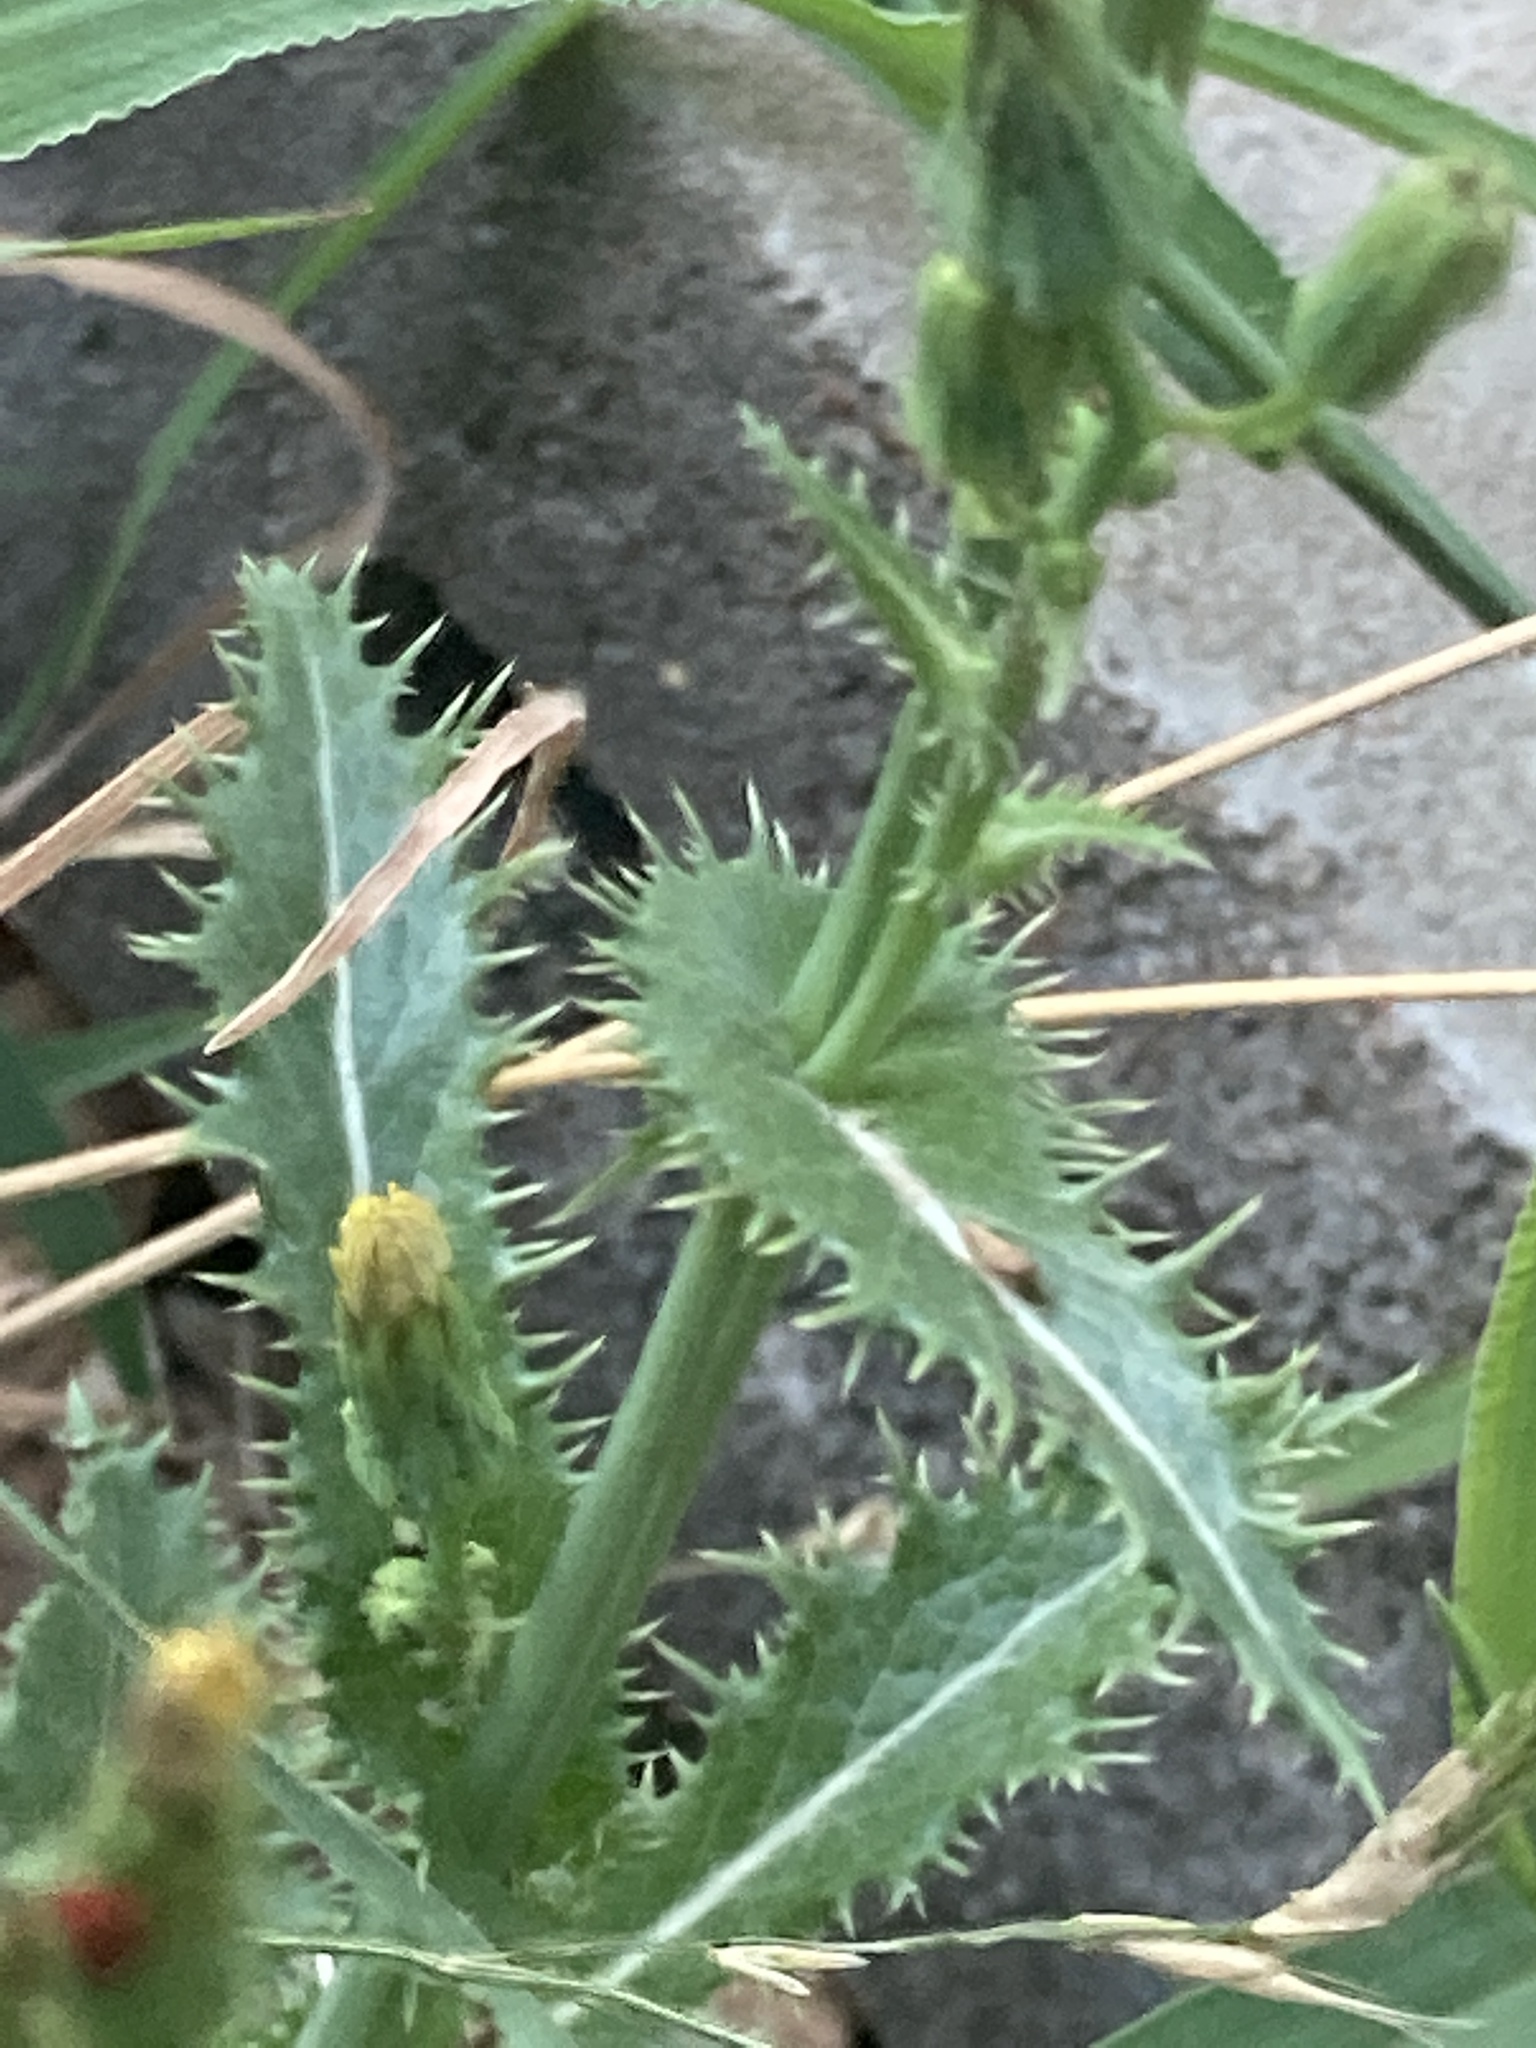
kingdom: Plantae
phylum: Tracheophyta
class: Magnoliopsida
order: Asterales
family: Asteraceae
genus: Sonchus
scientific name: Sonchus asper
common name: Prickly sow-thistle
